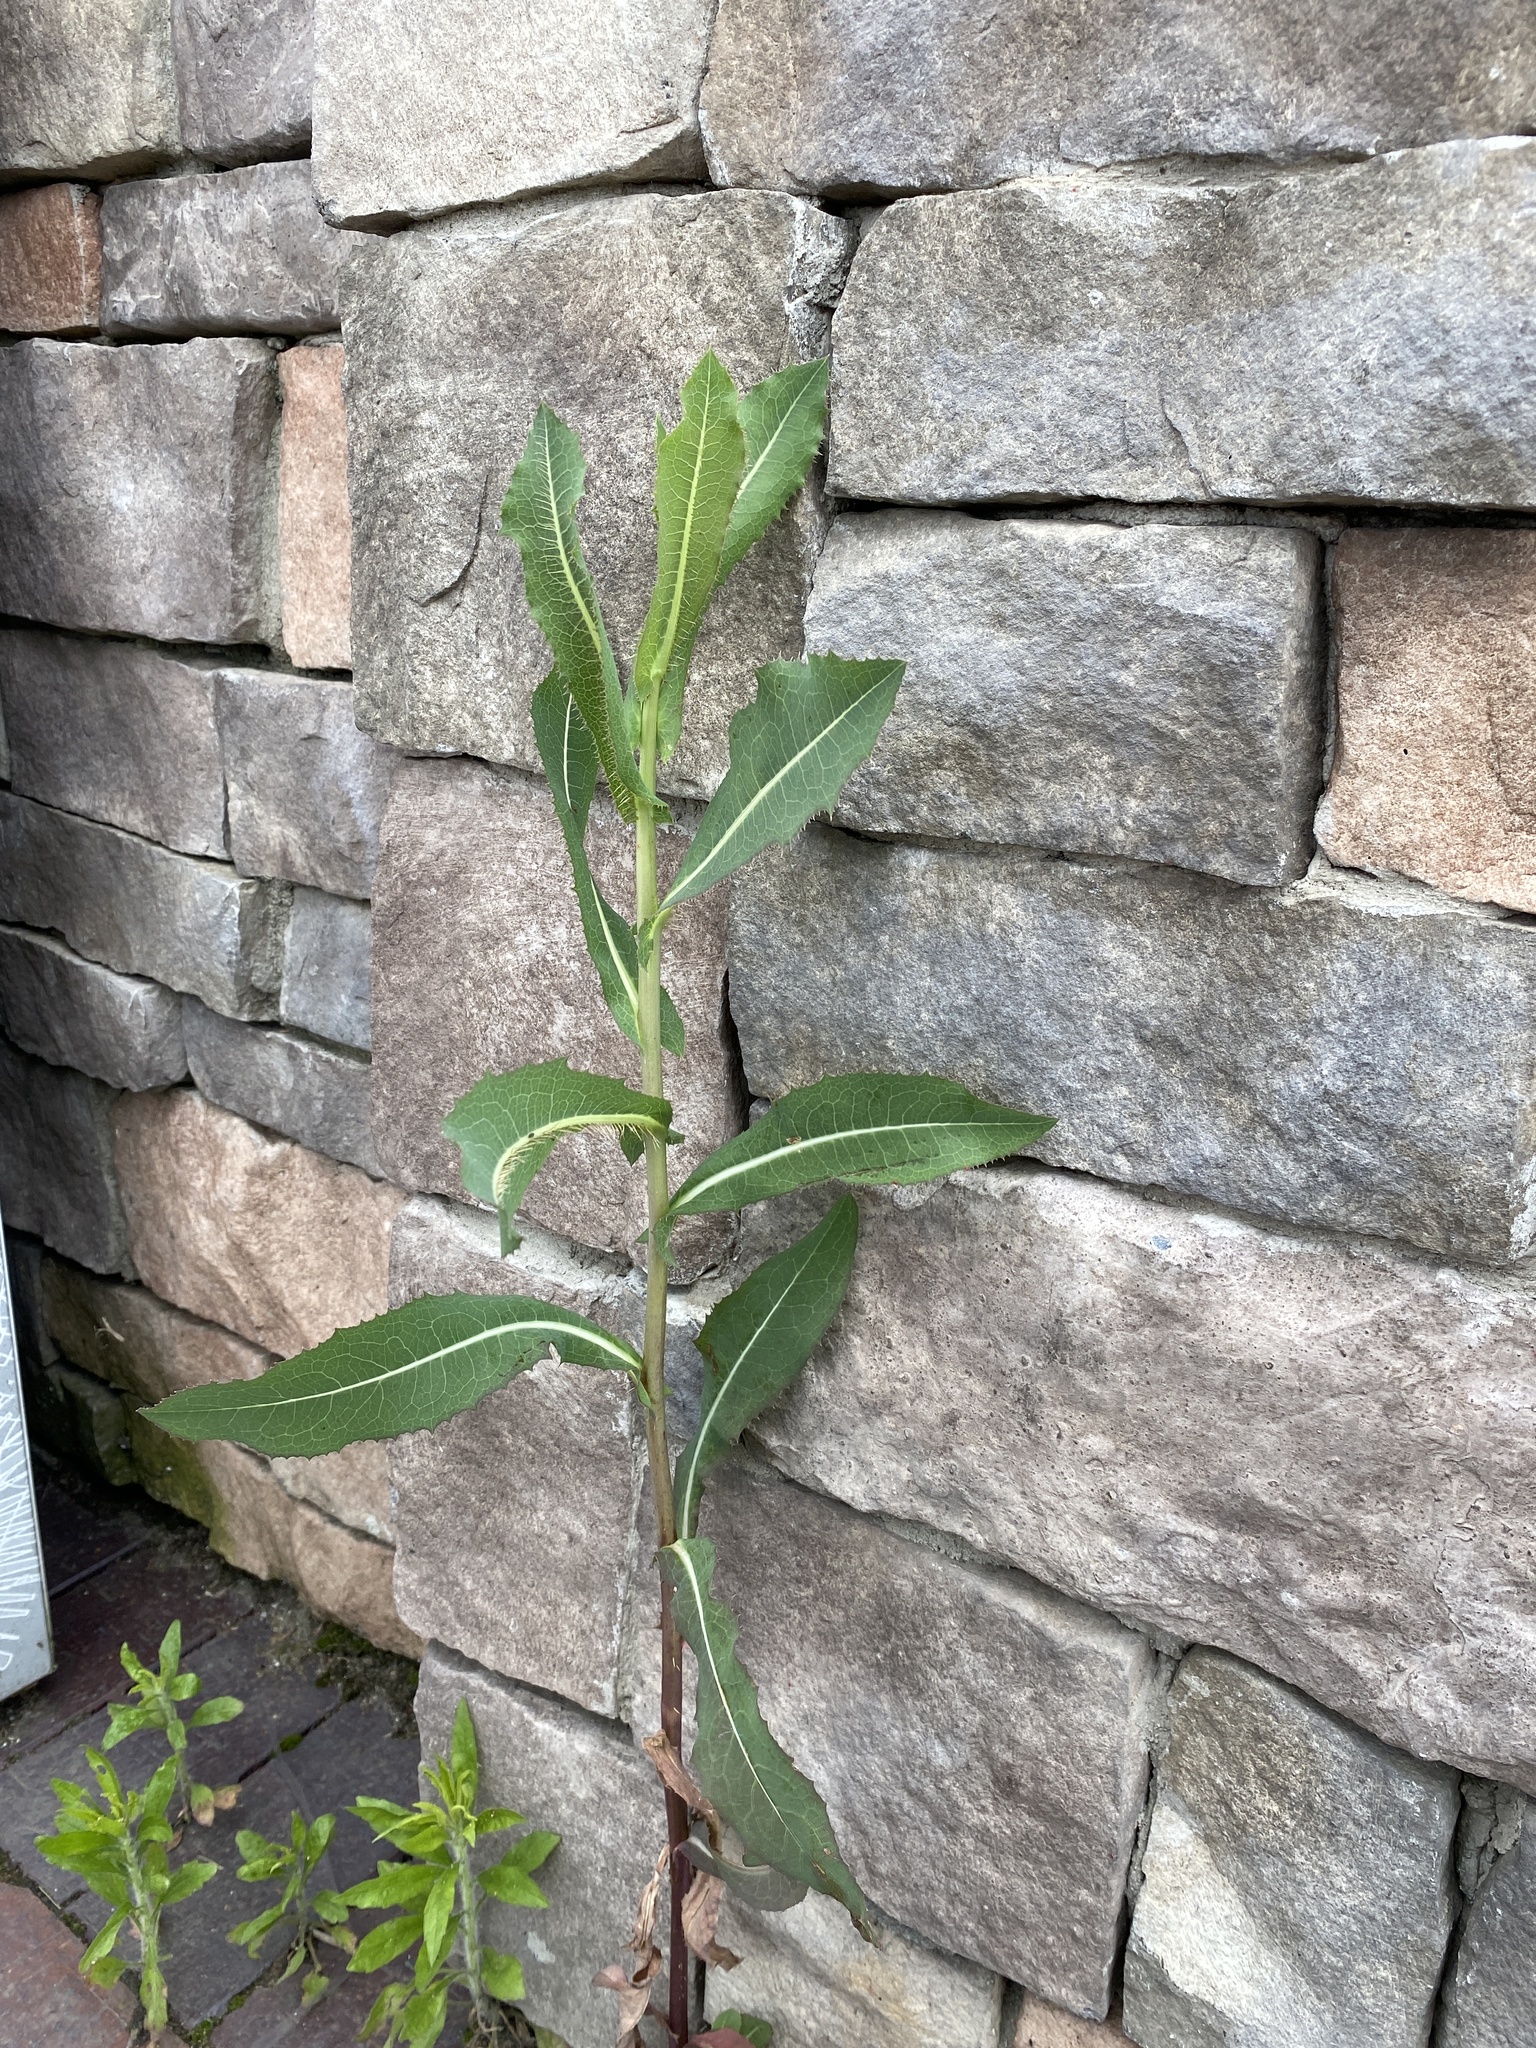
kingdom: Plantae
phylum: Tracheophyta
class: Magnoliopsida
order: Asterales
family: Asteraceae
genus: Lactuca
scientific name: Lactuca serriola
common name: Prickly lettuce
